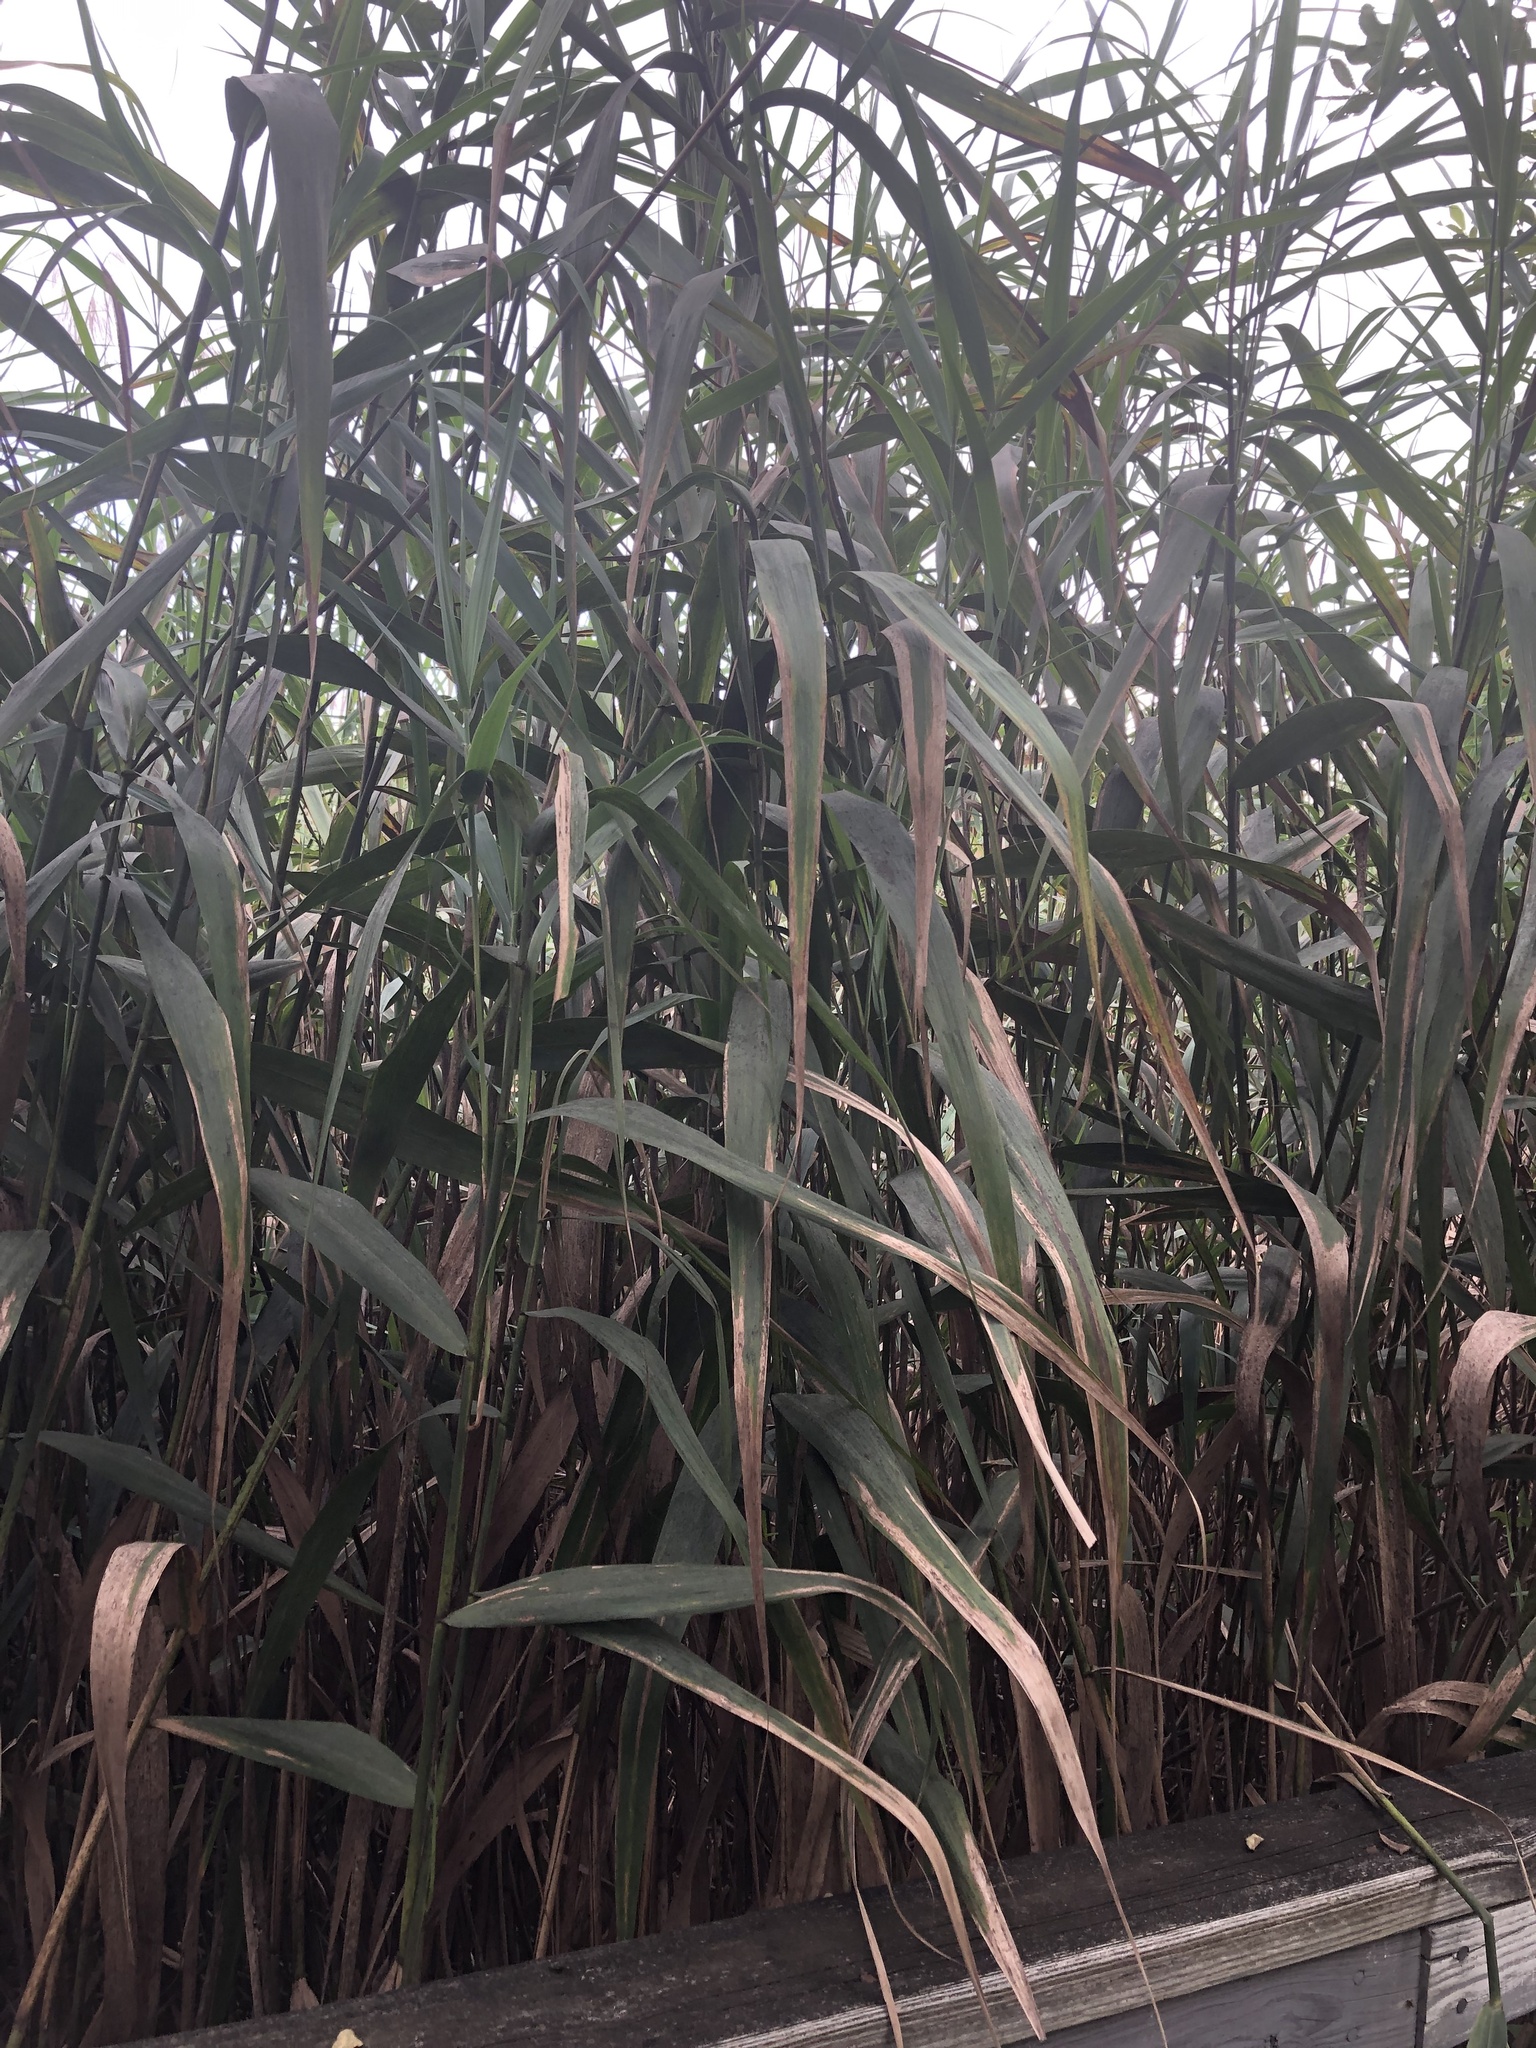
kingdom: Plantae
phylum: Tracheophyta
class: Liliopsida
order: Poales
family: Poaceae
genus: Phragmites
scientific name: Phragmites australis
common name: Common reed
